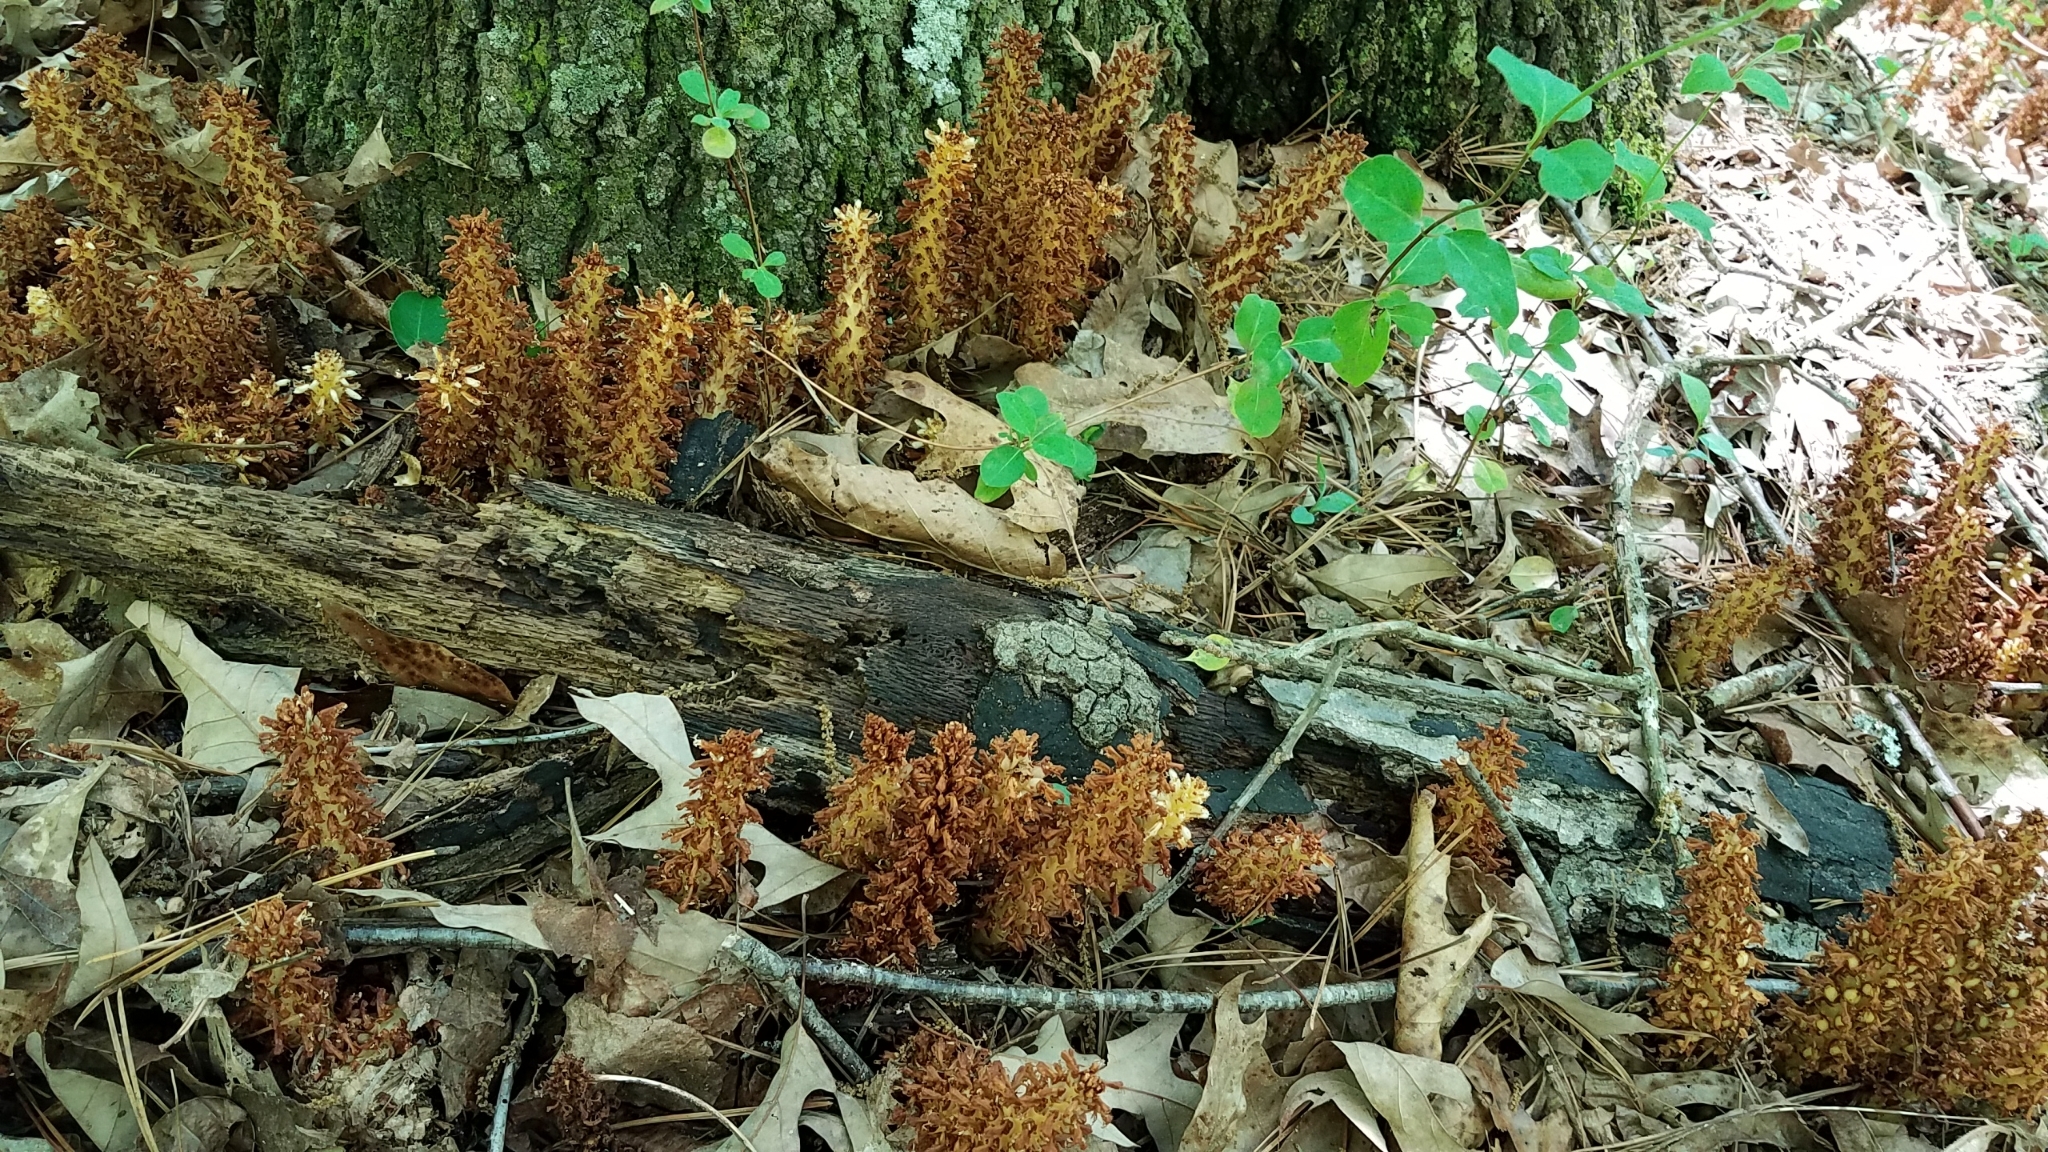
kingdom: Plantae
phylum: Tracheophyta
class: Magnoliopsida
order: Lamiales
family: Orobanchaceae
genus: Conopholis
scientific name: Conopholis americana
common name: American cancer-root
